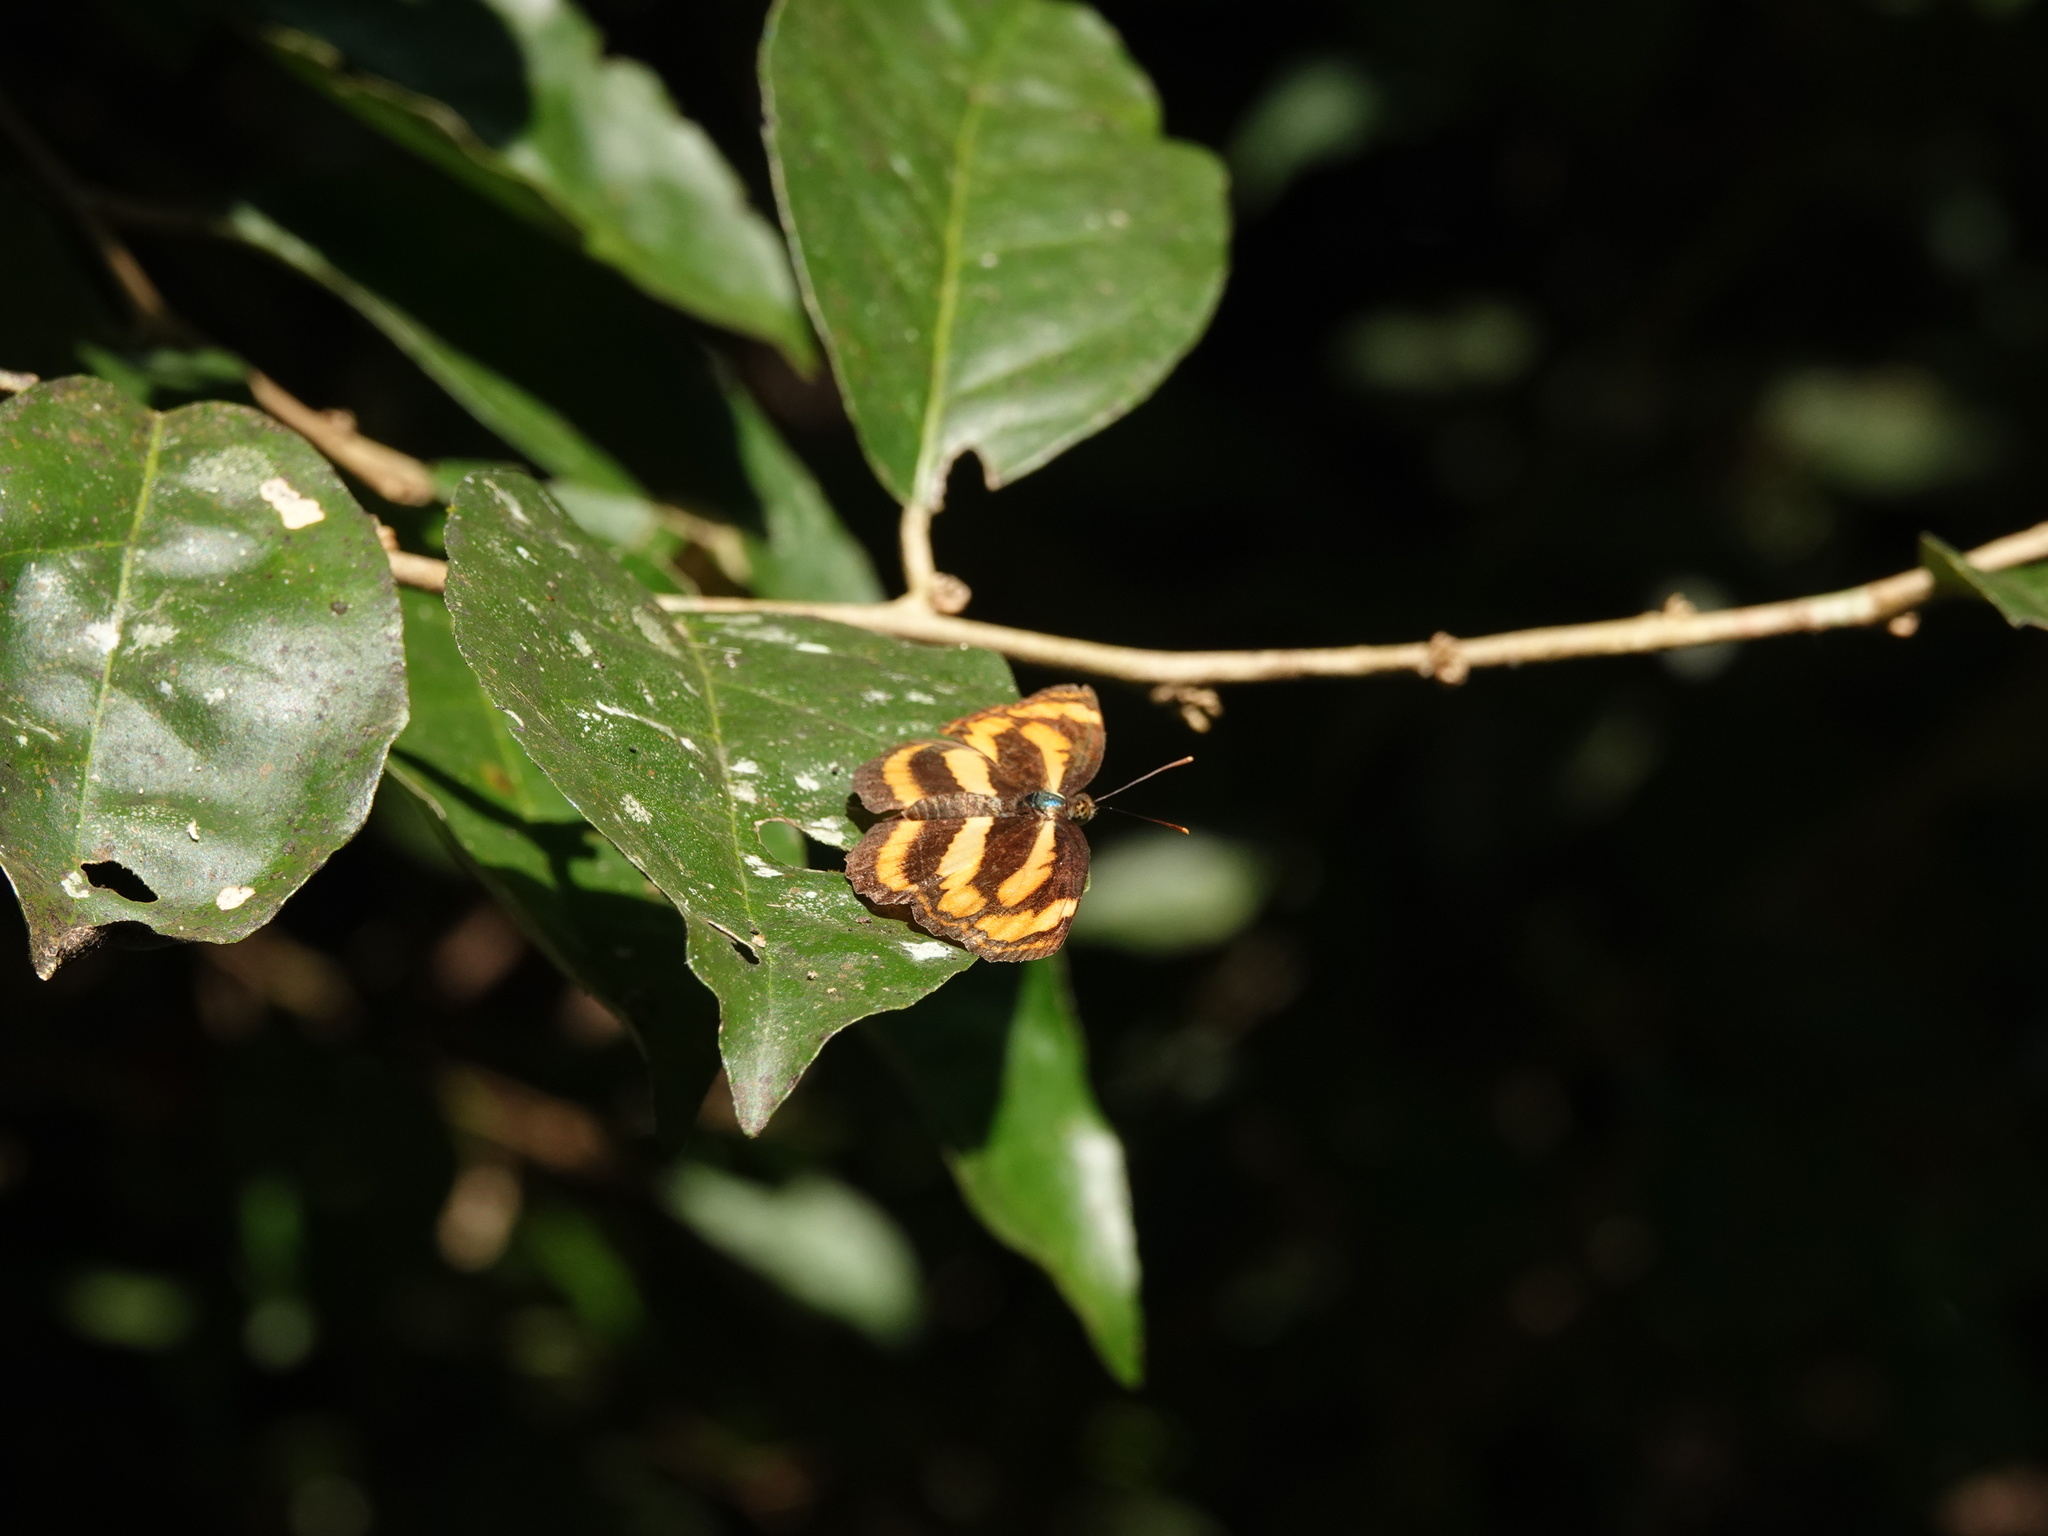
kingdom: Animalia
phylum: Arthropoda
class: Insecta
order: Lepidoptera
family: Hesperiidae
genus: Oriens
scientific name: Oriens gola
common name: Common dartlet
